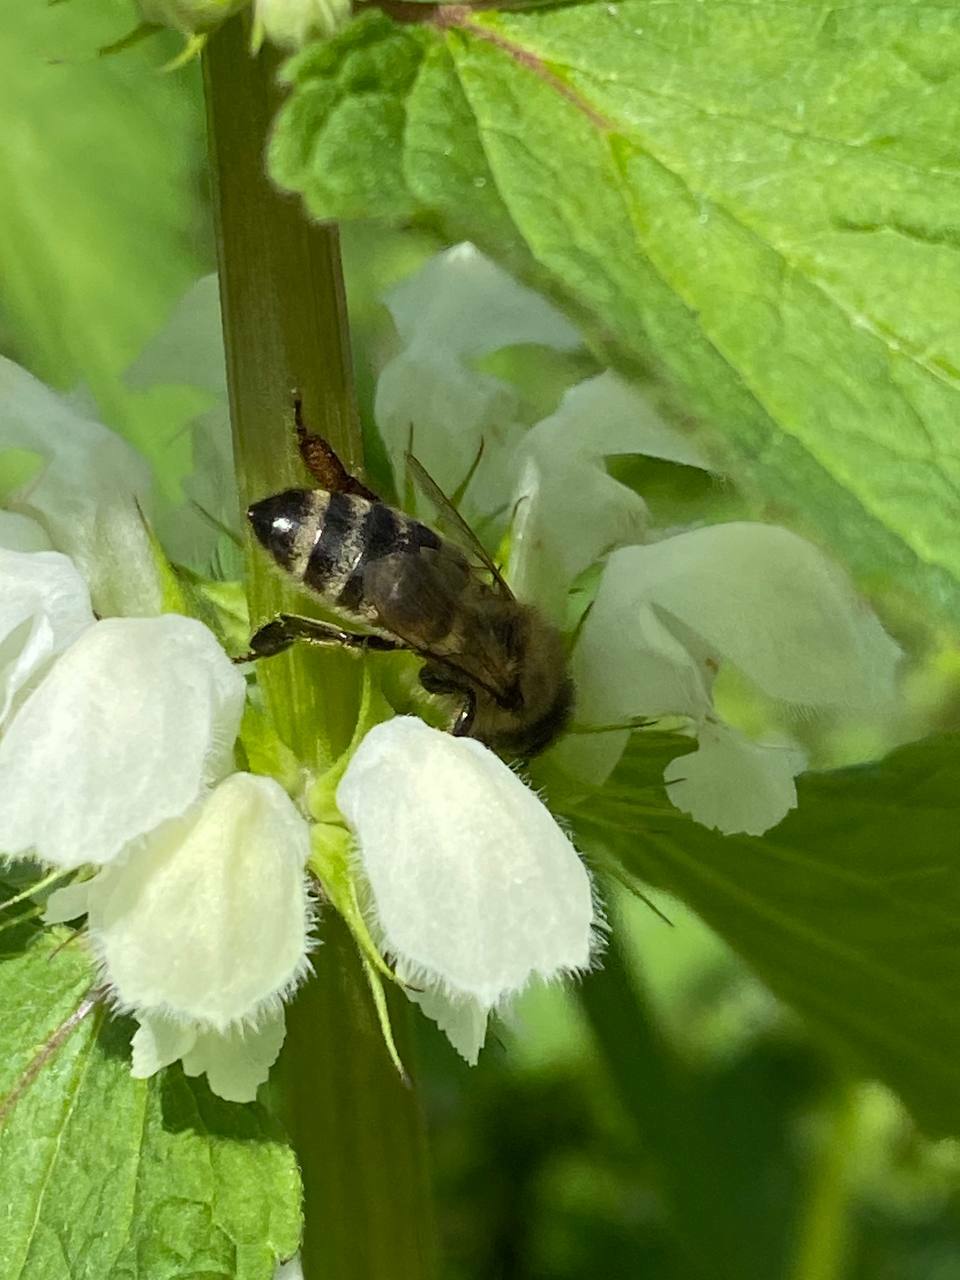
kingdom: Animalia
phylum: Arthropoda
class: Insecta
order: Hymenoptera
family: Apidae
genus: Apis
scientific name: Apis mellifera
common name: Honey bee
